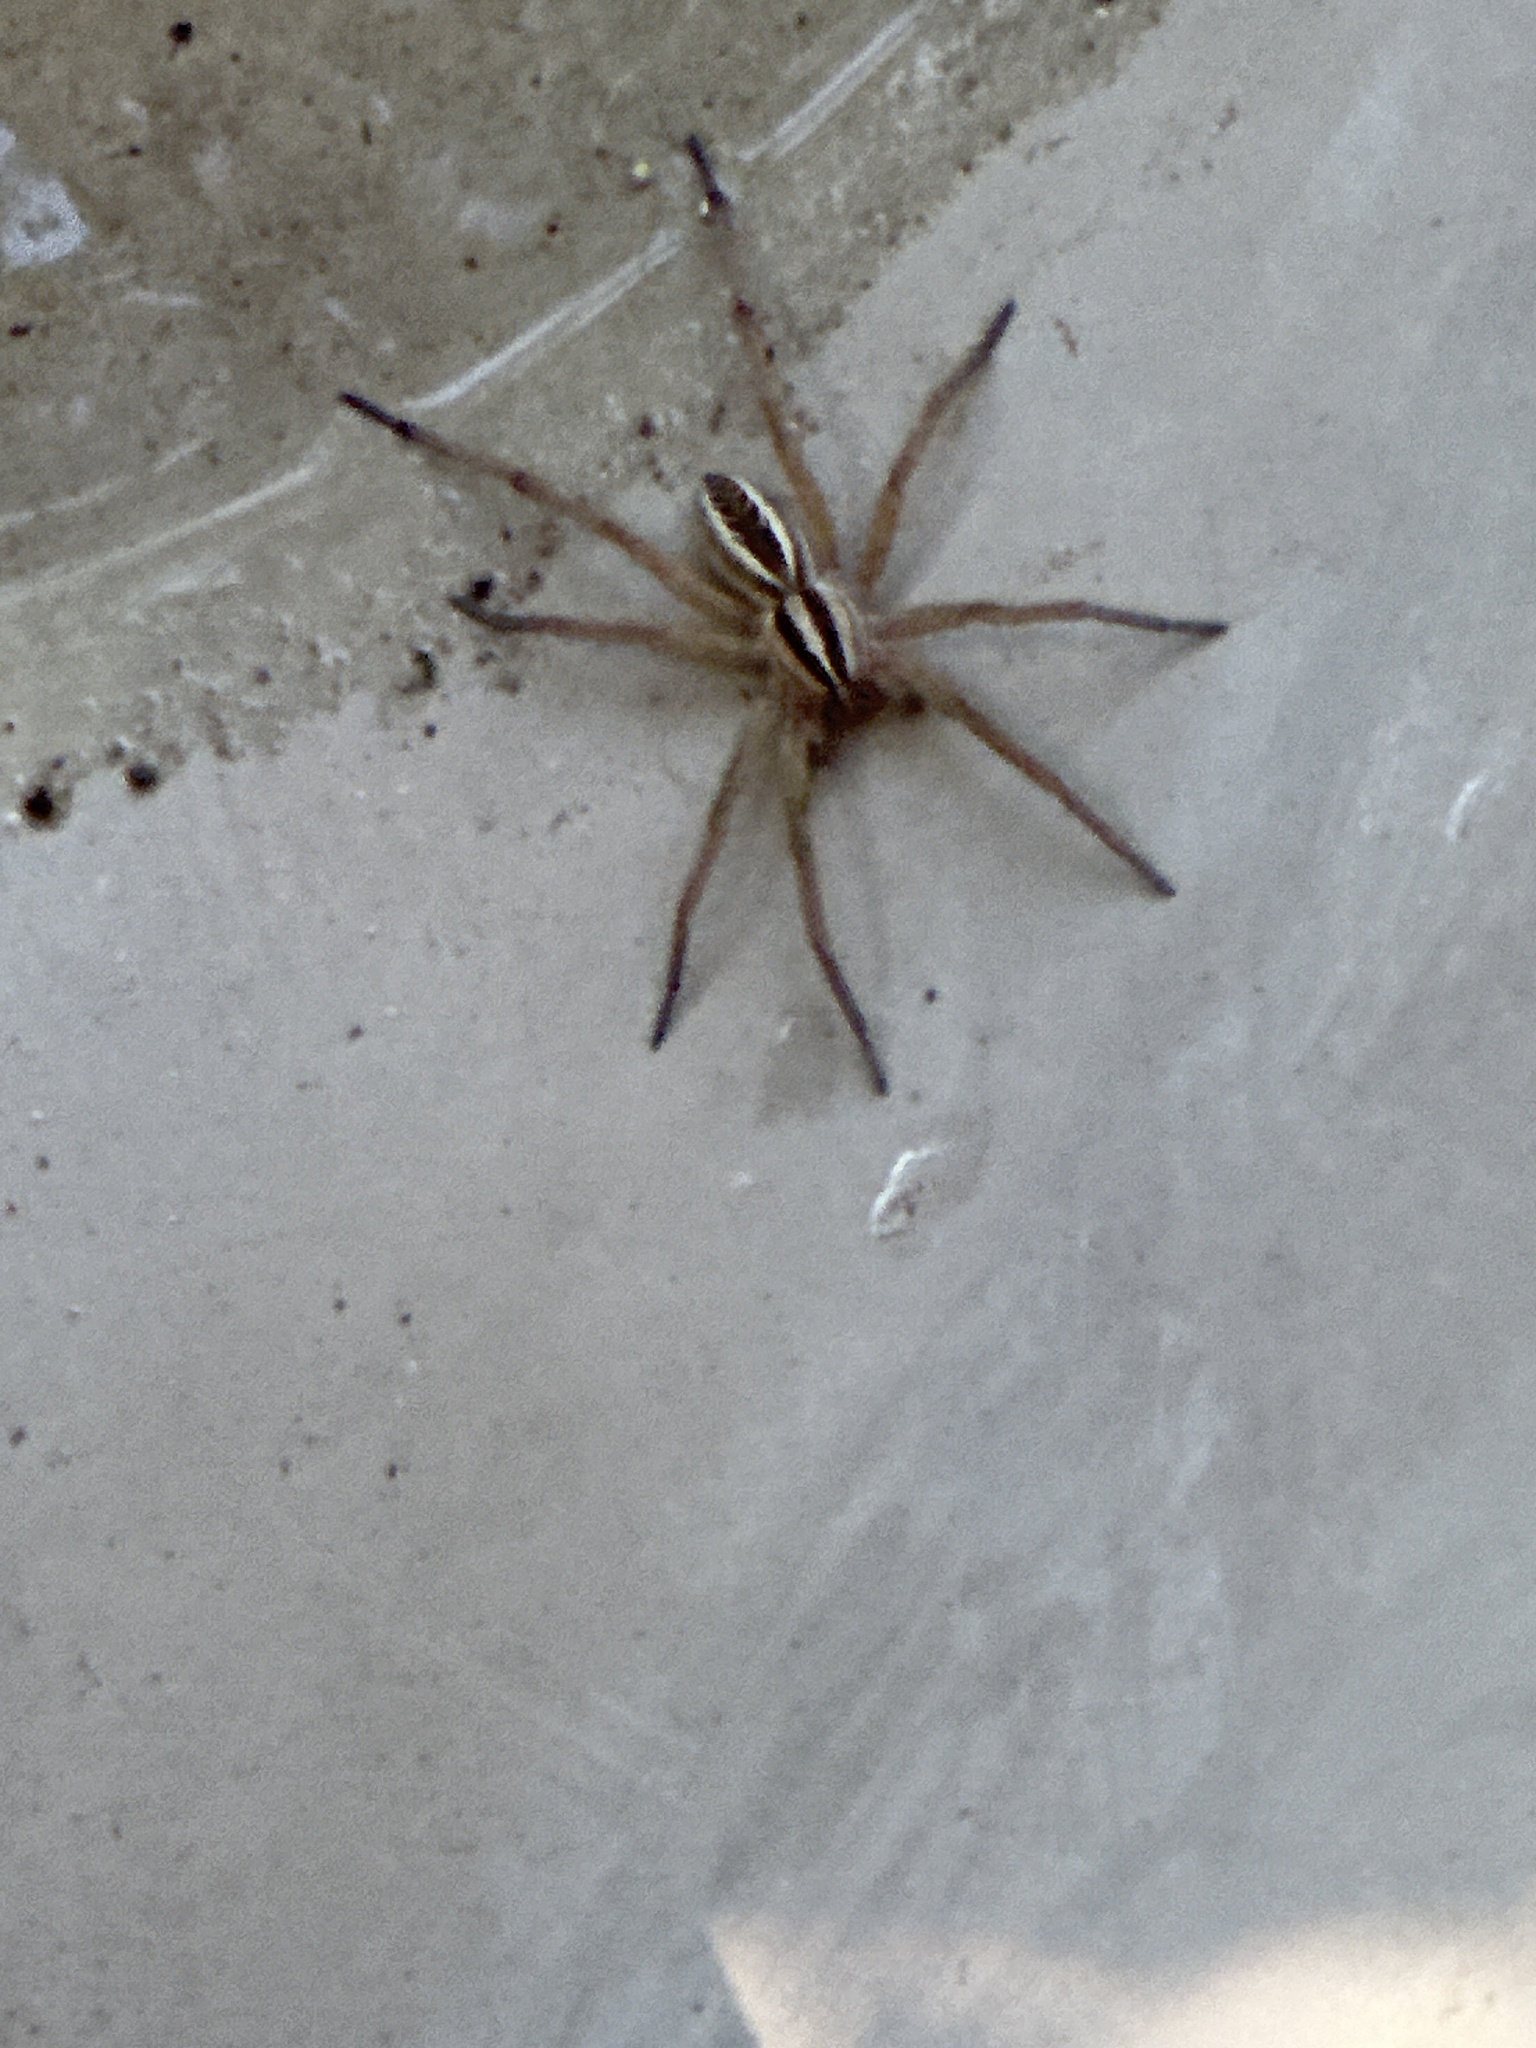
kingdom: Animalia
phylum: Arthropoda
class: Arachnida
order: Araneae
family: Lycosidae
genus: Rabidosa
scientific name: Rabidosa rabida
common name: Rabid wolf spider
